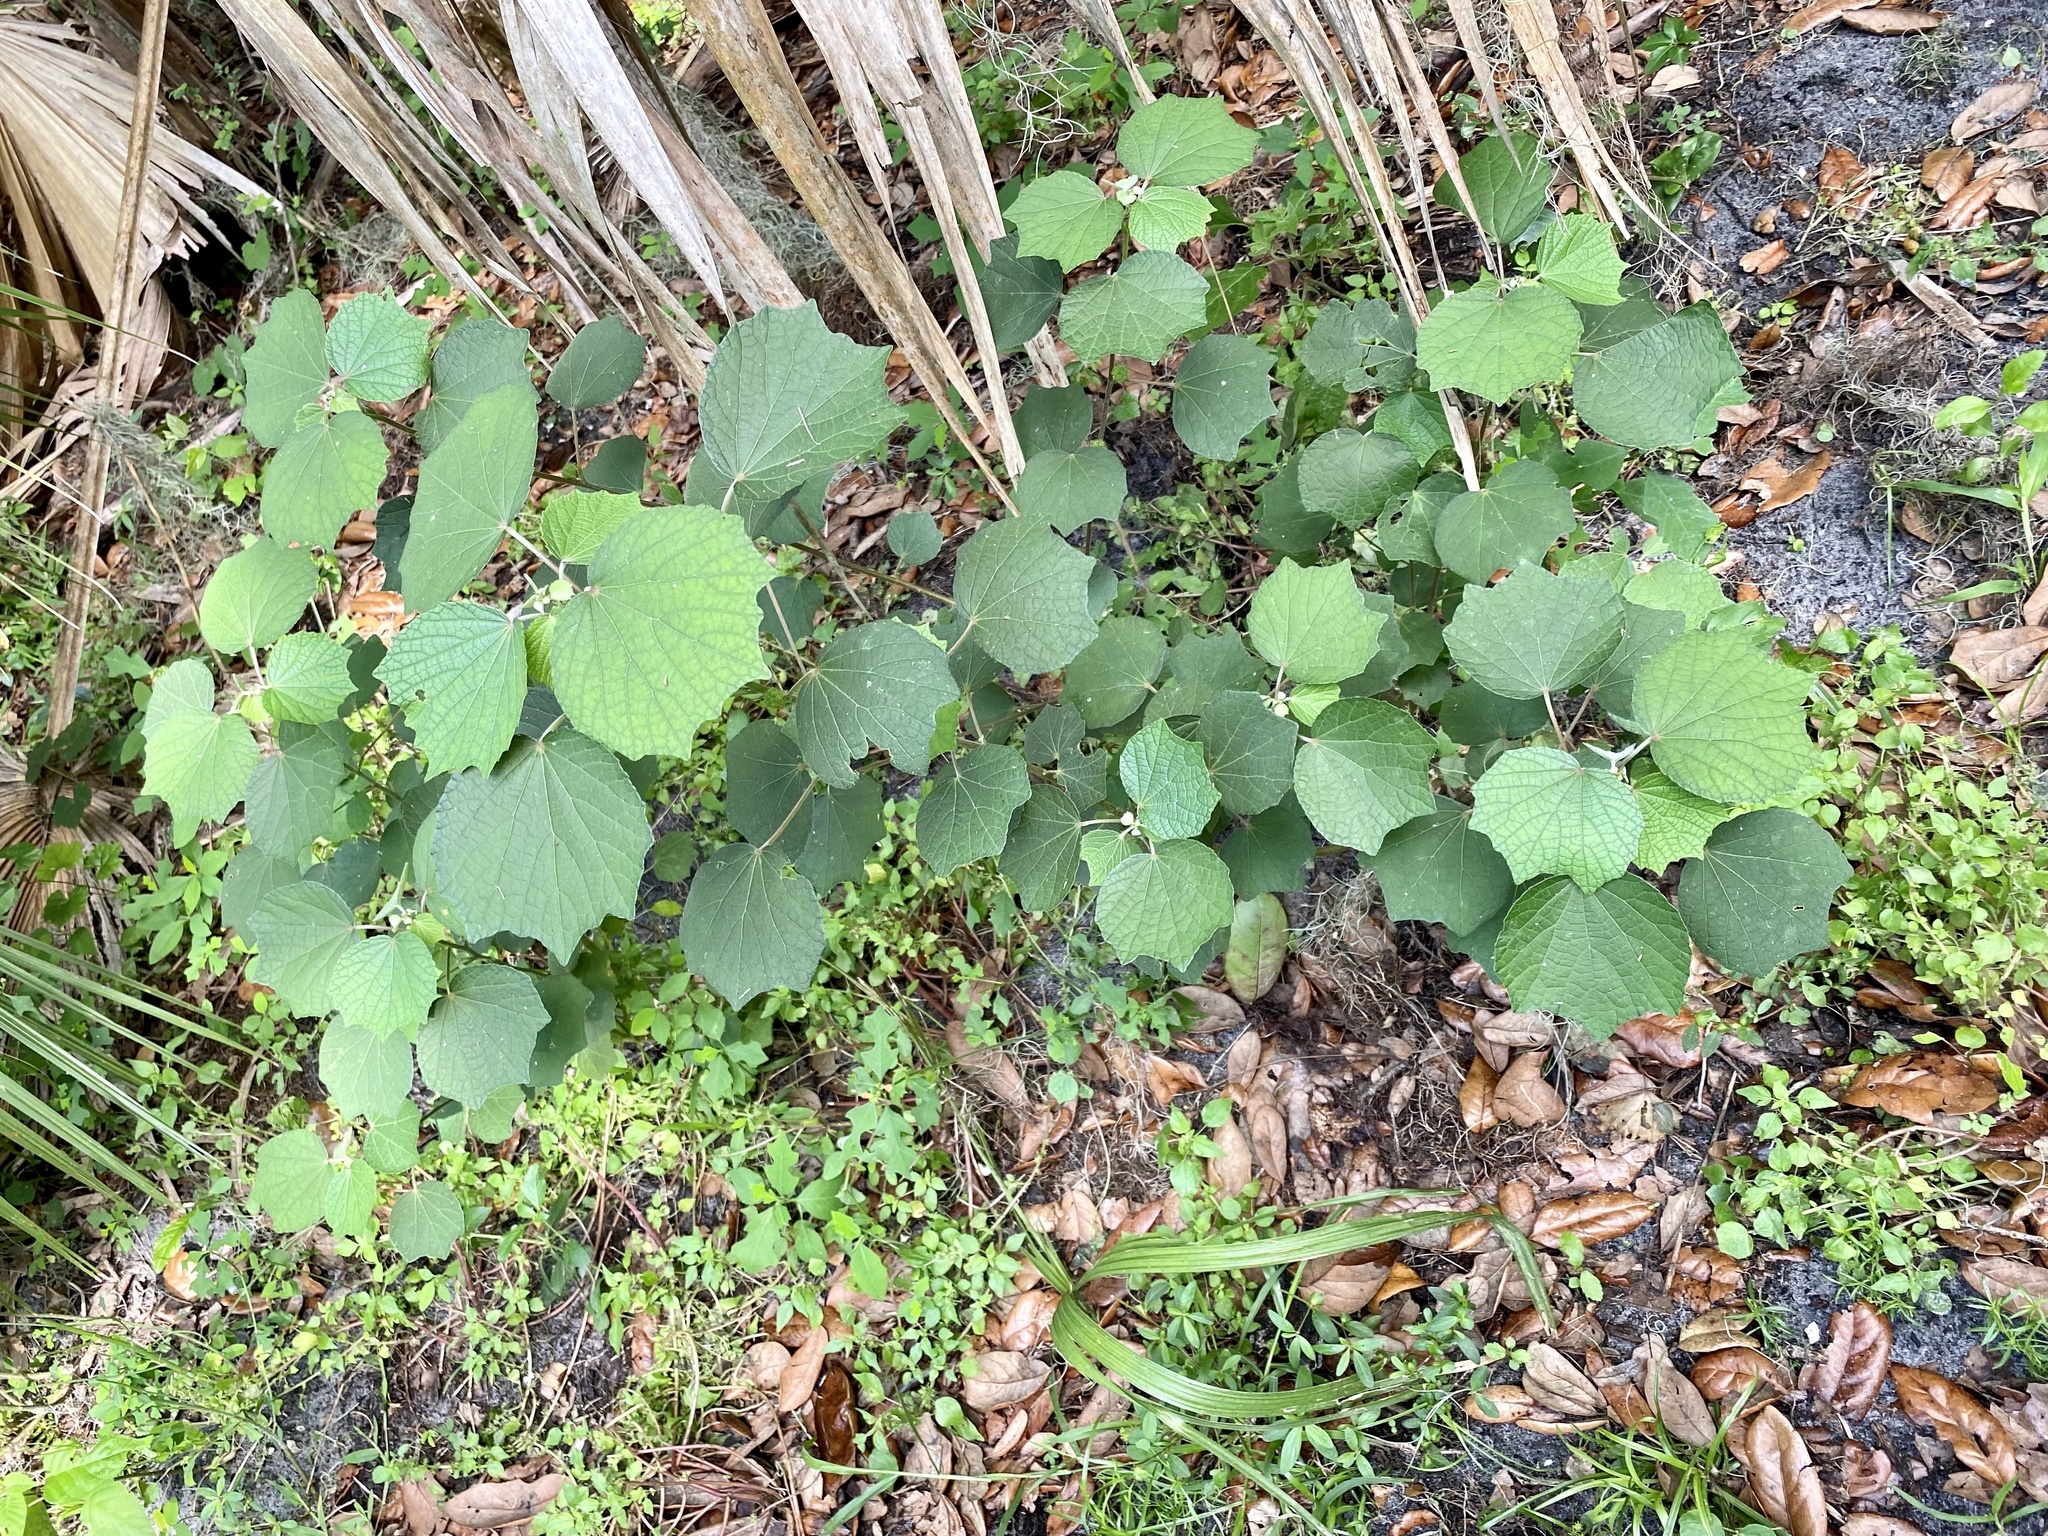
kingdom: Plantae
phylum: Tracheophyta
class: Magnoliopsida
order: Malvales
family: Malvaceae
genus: Urena
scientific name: Urena lobata
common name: Caesarweed
